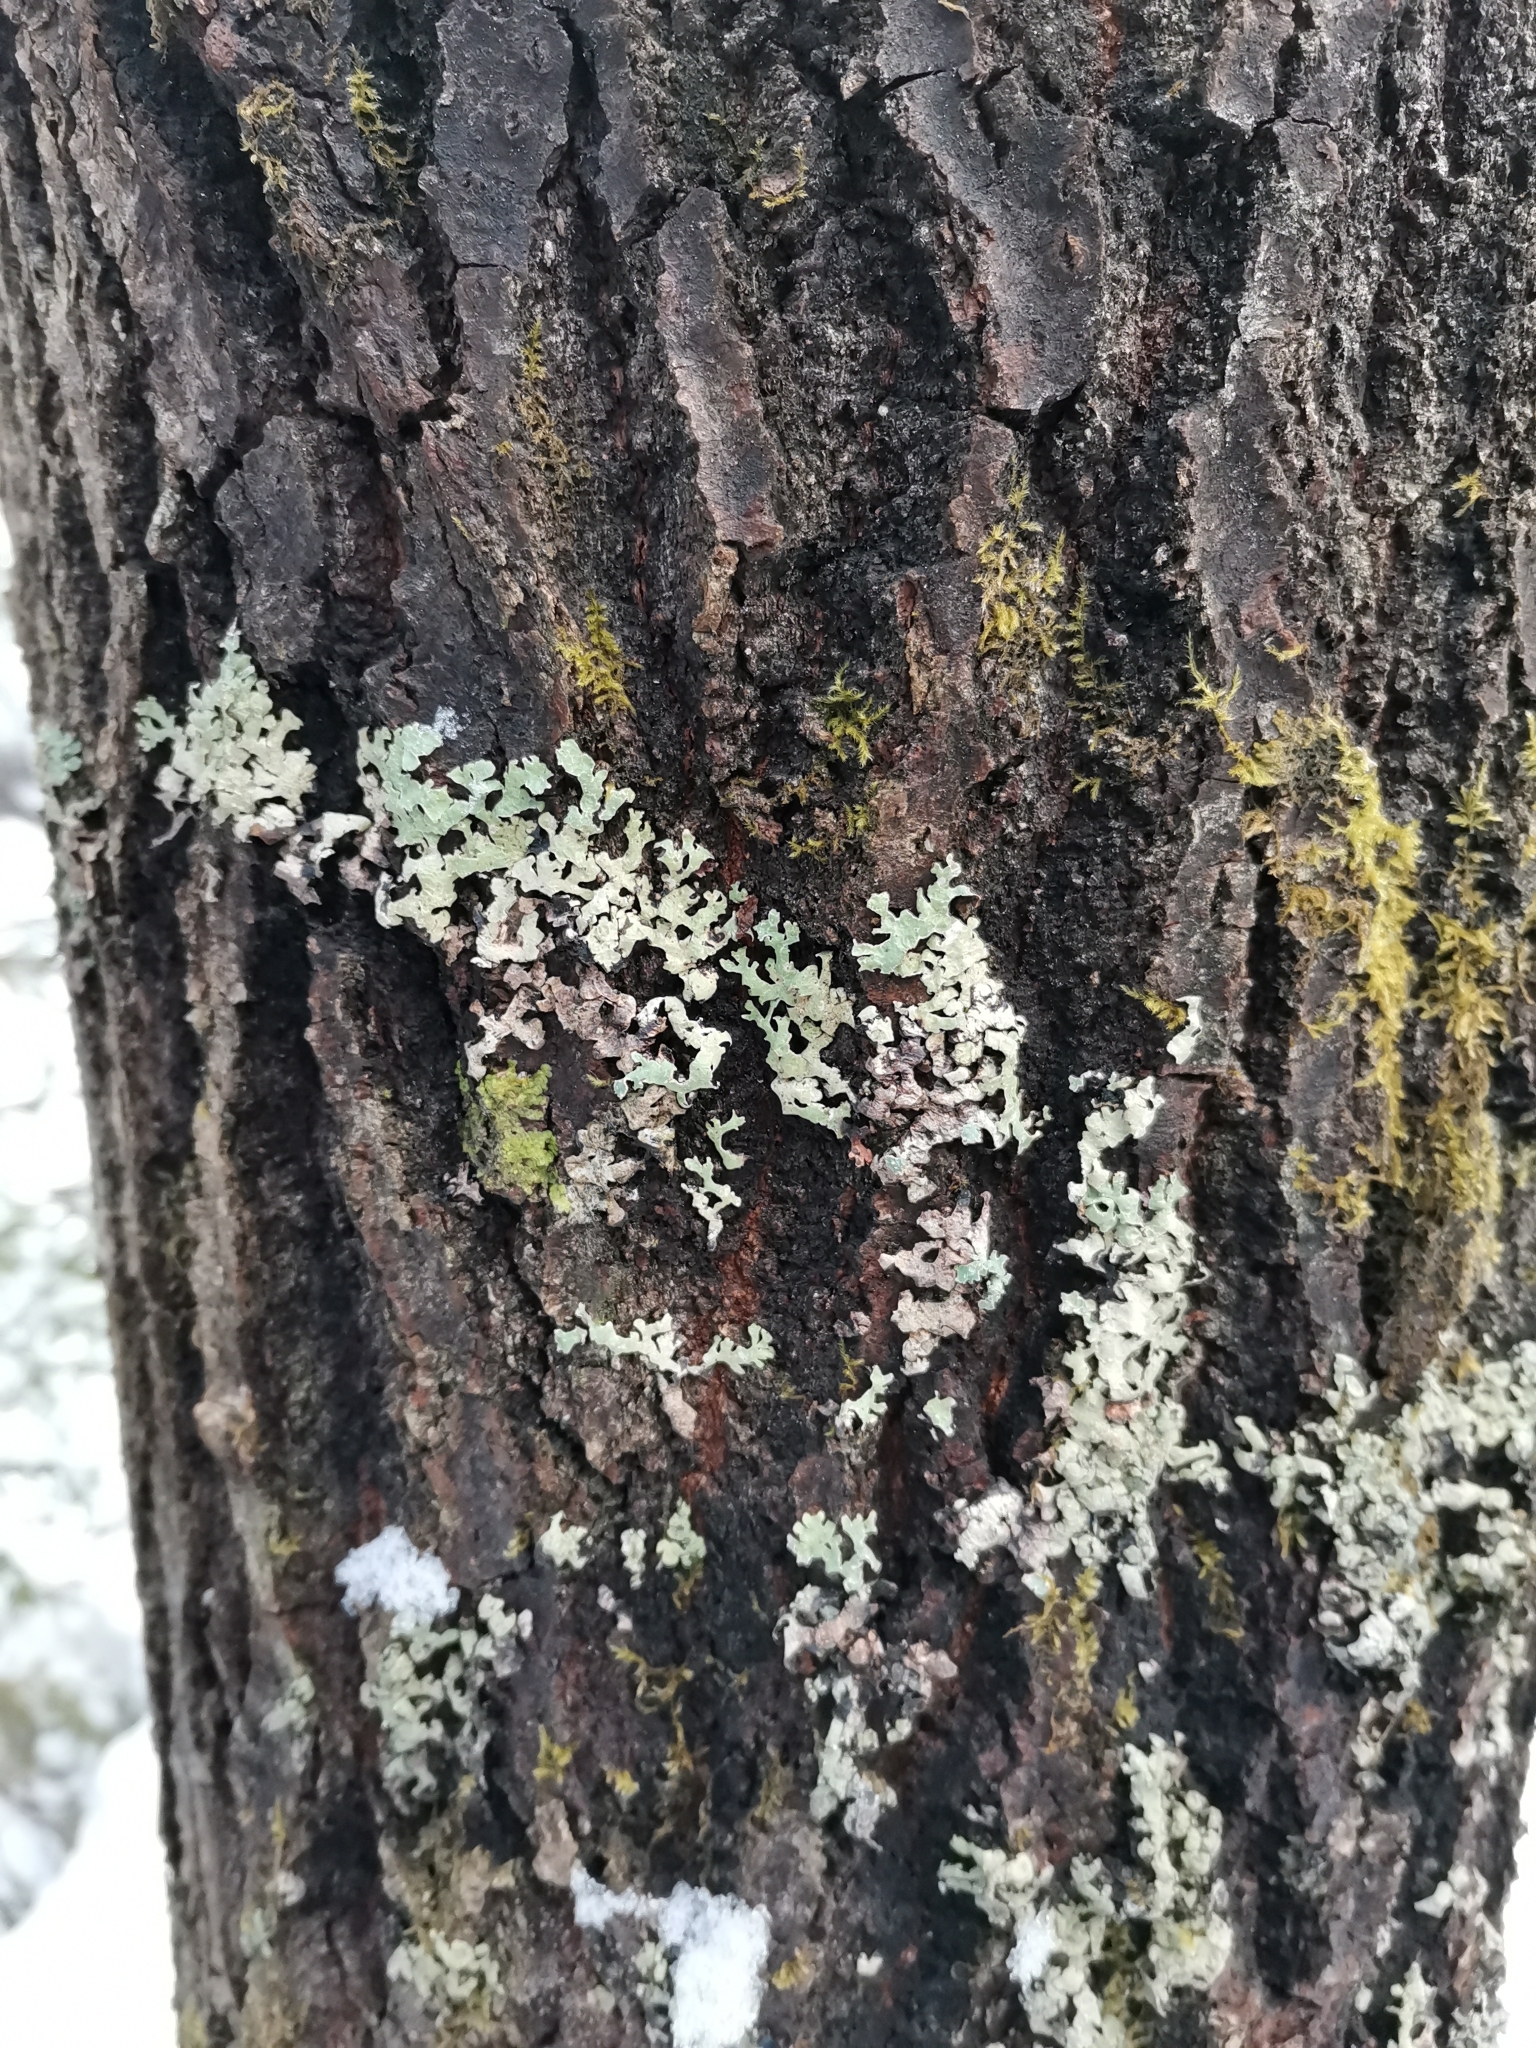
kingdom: Fungi
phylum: Ascomycota
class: Lecanoromycetes
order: Lecanorales
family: Parmeliaceae
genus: Parmelia
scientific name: Parmelia sulcata
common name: Netted shield lichen
